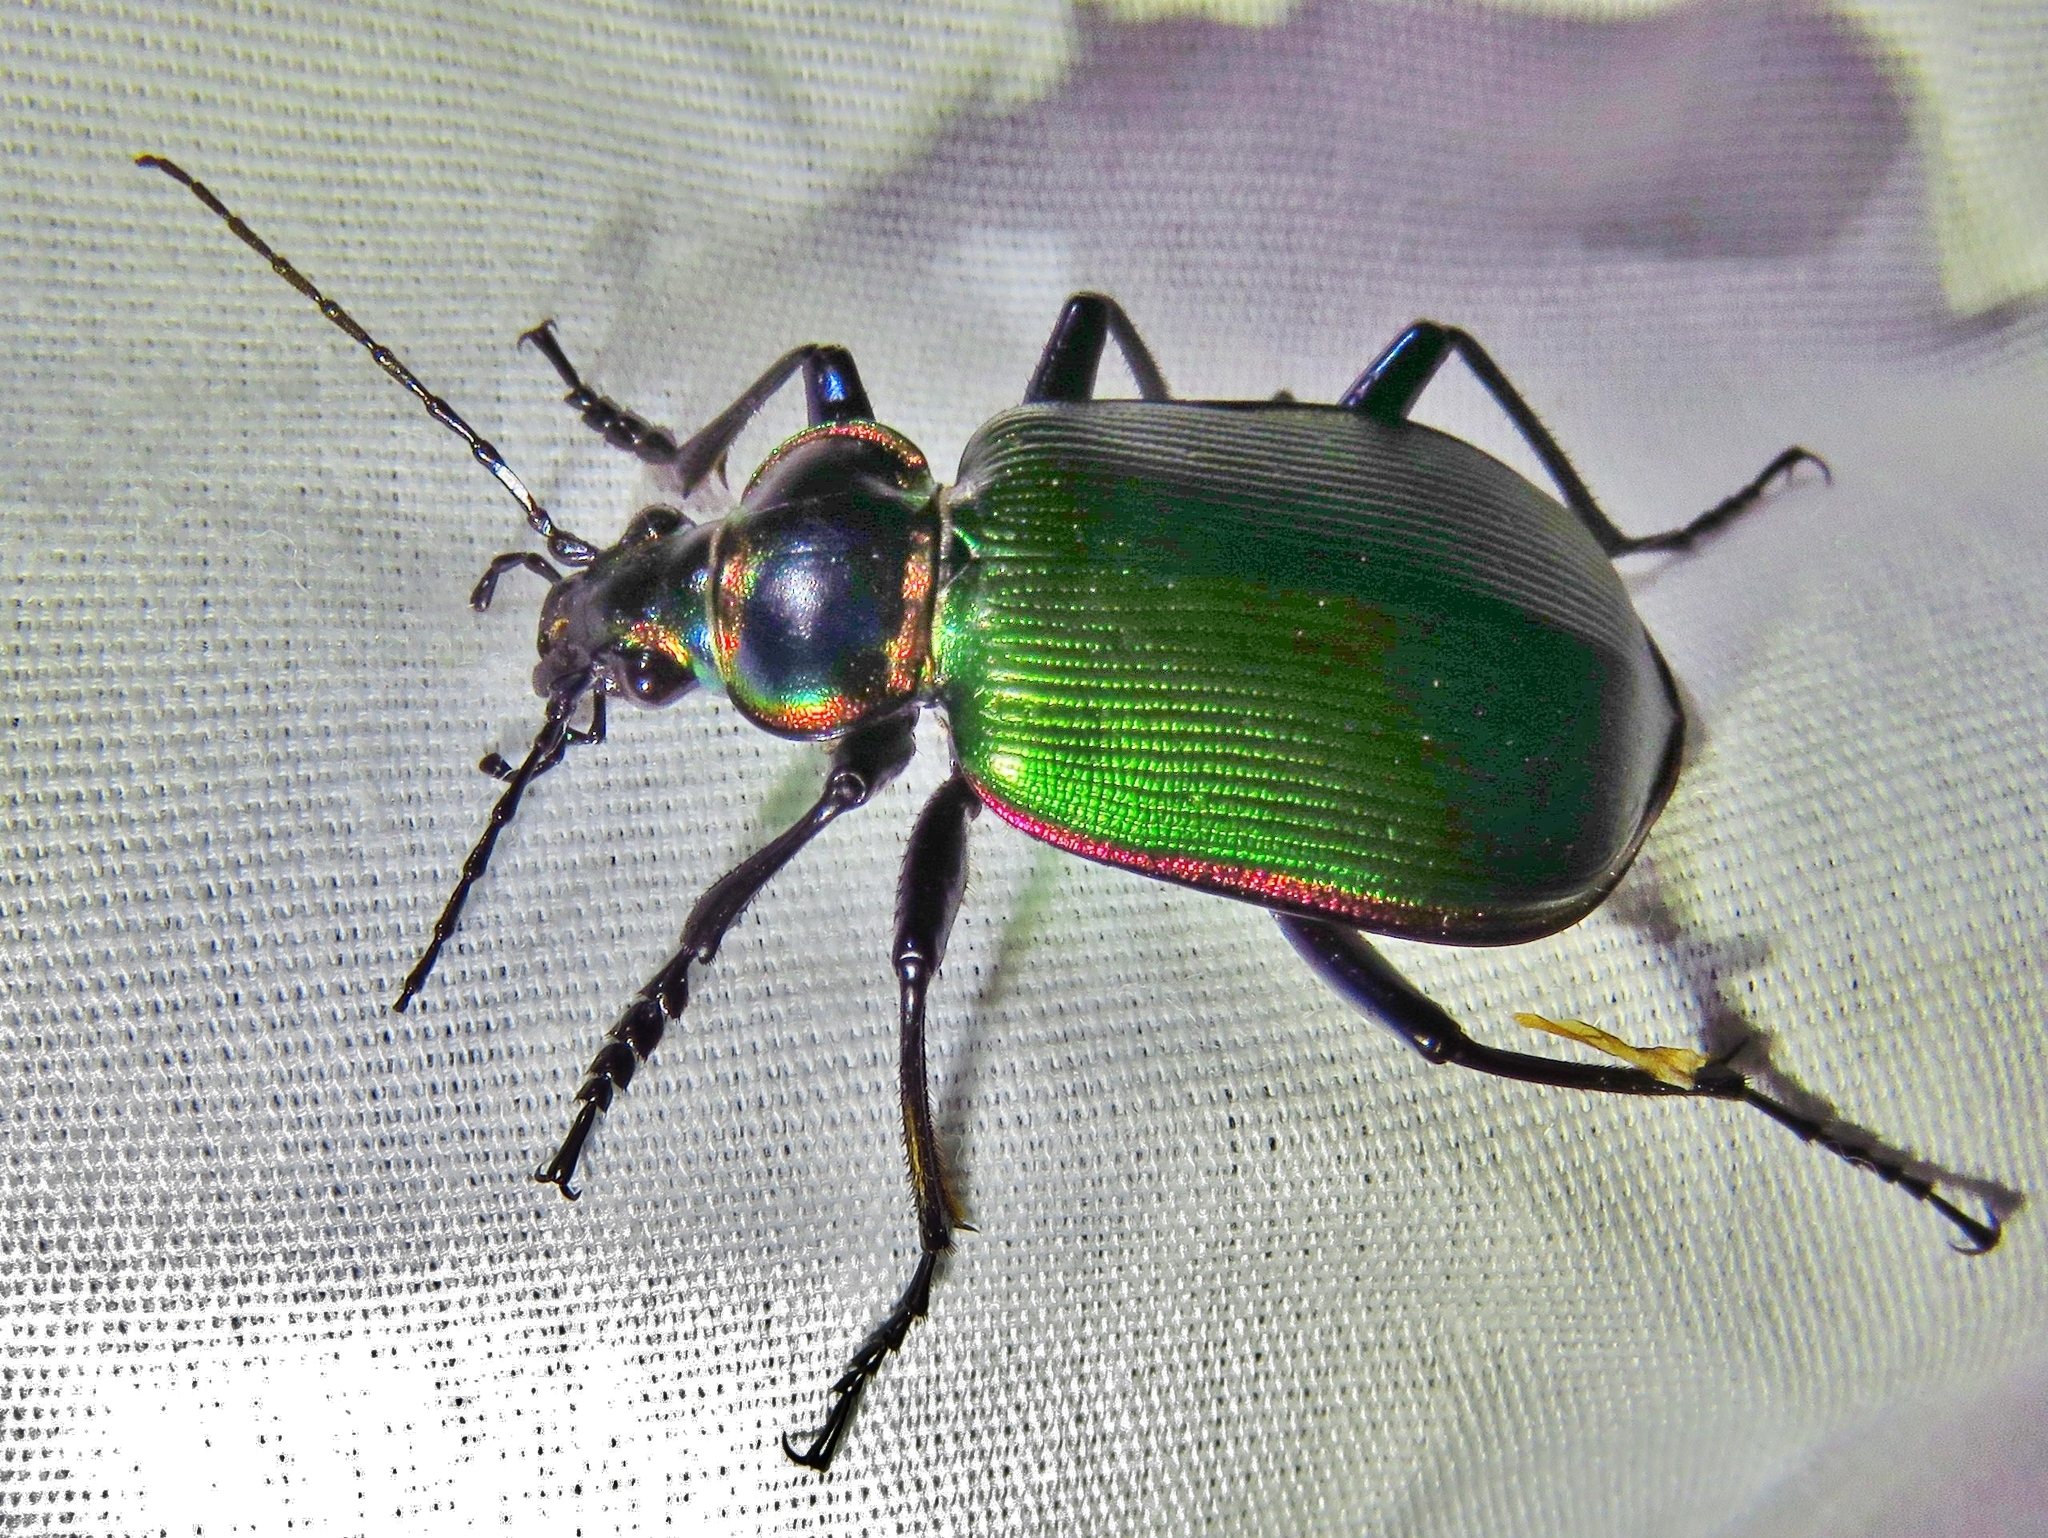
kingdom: Animalia
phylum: Arthropoda
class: Insecta
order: Coleoptera
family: Carabidae
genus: Calosoma
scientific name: Calosoma scrutator
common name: Fiery searcher beetle
